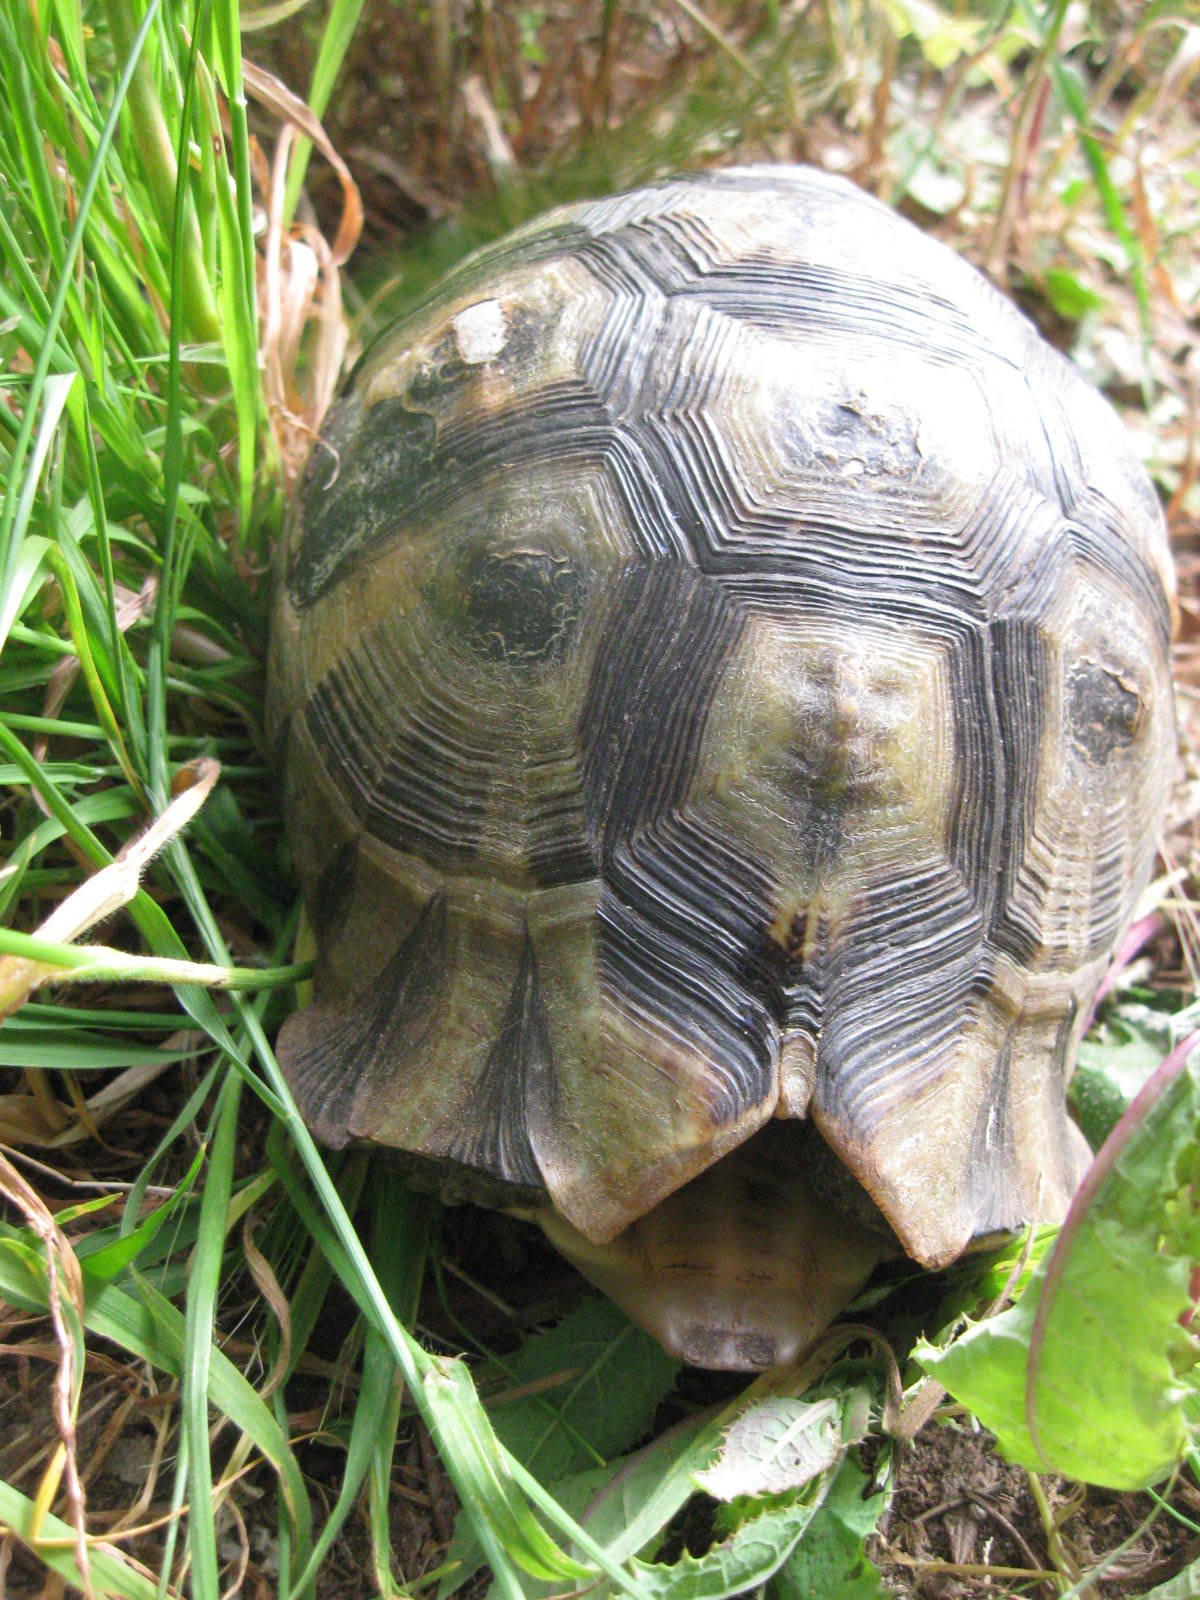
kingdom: Animalia
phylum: Chordata
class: Testudines
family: Testudinidae
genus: Chersina
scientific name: Chersina angulata
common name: South african bowsprit tortoise
